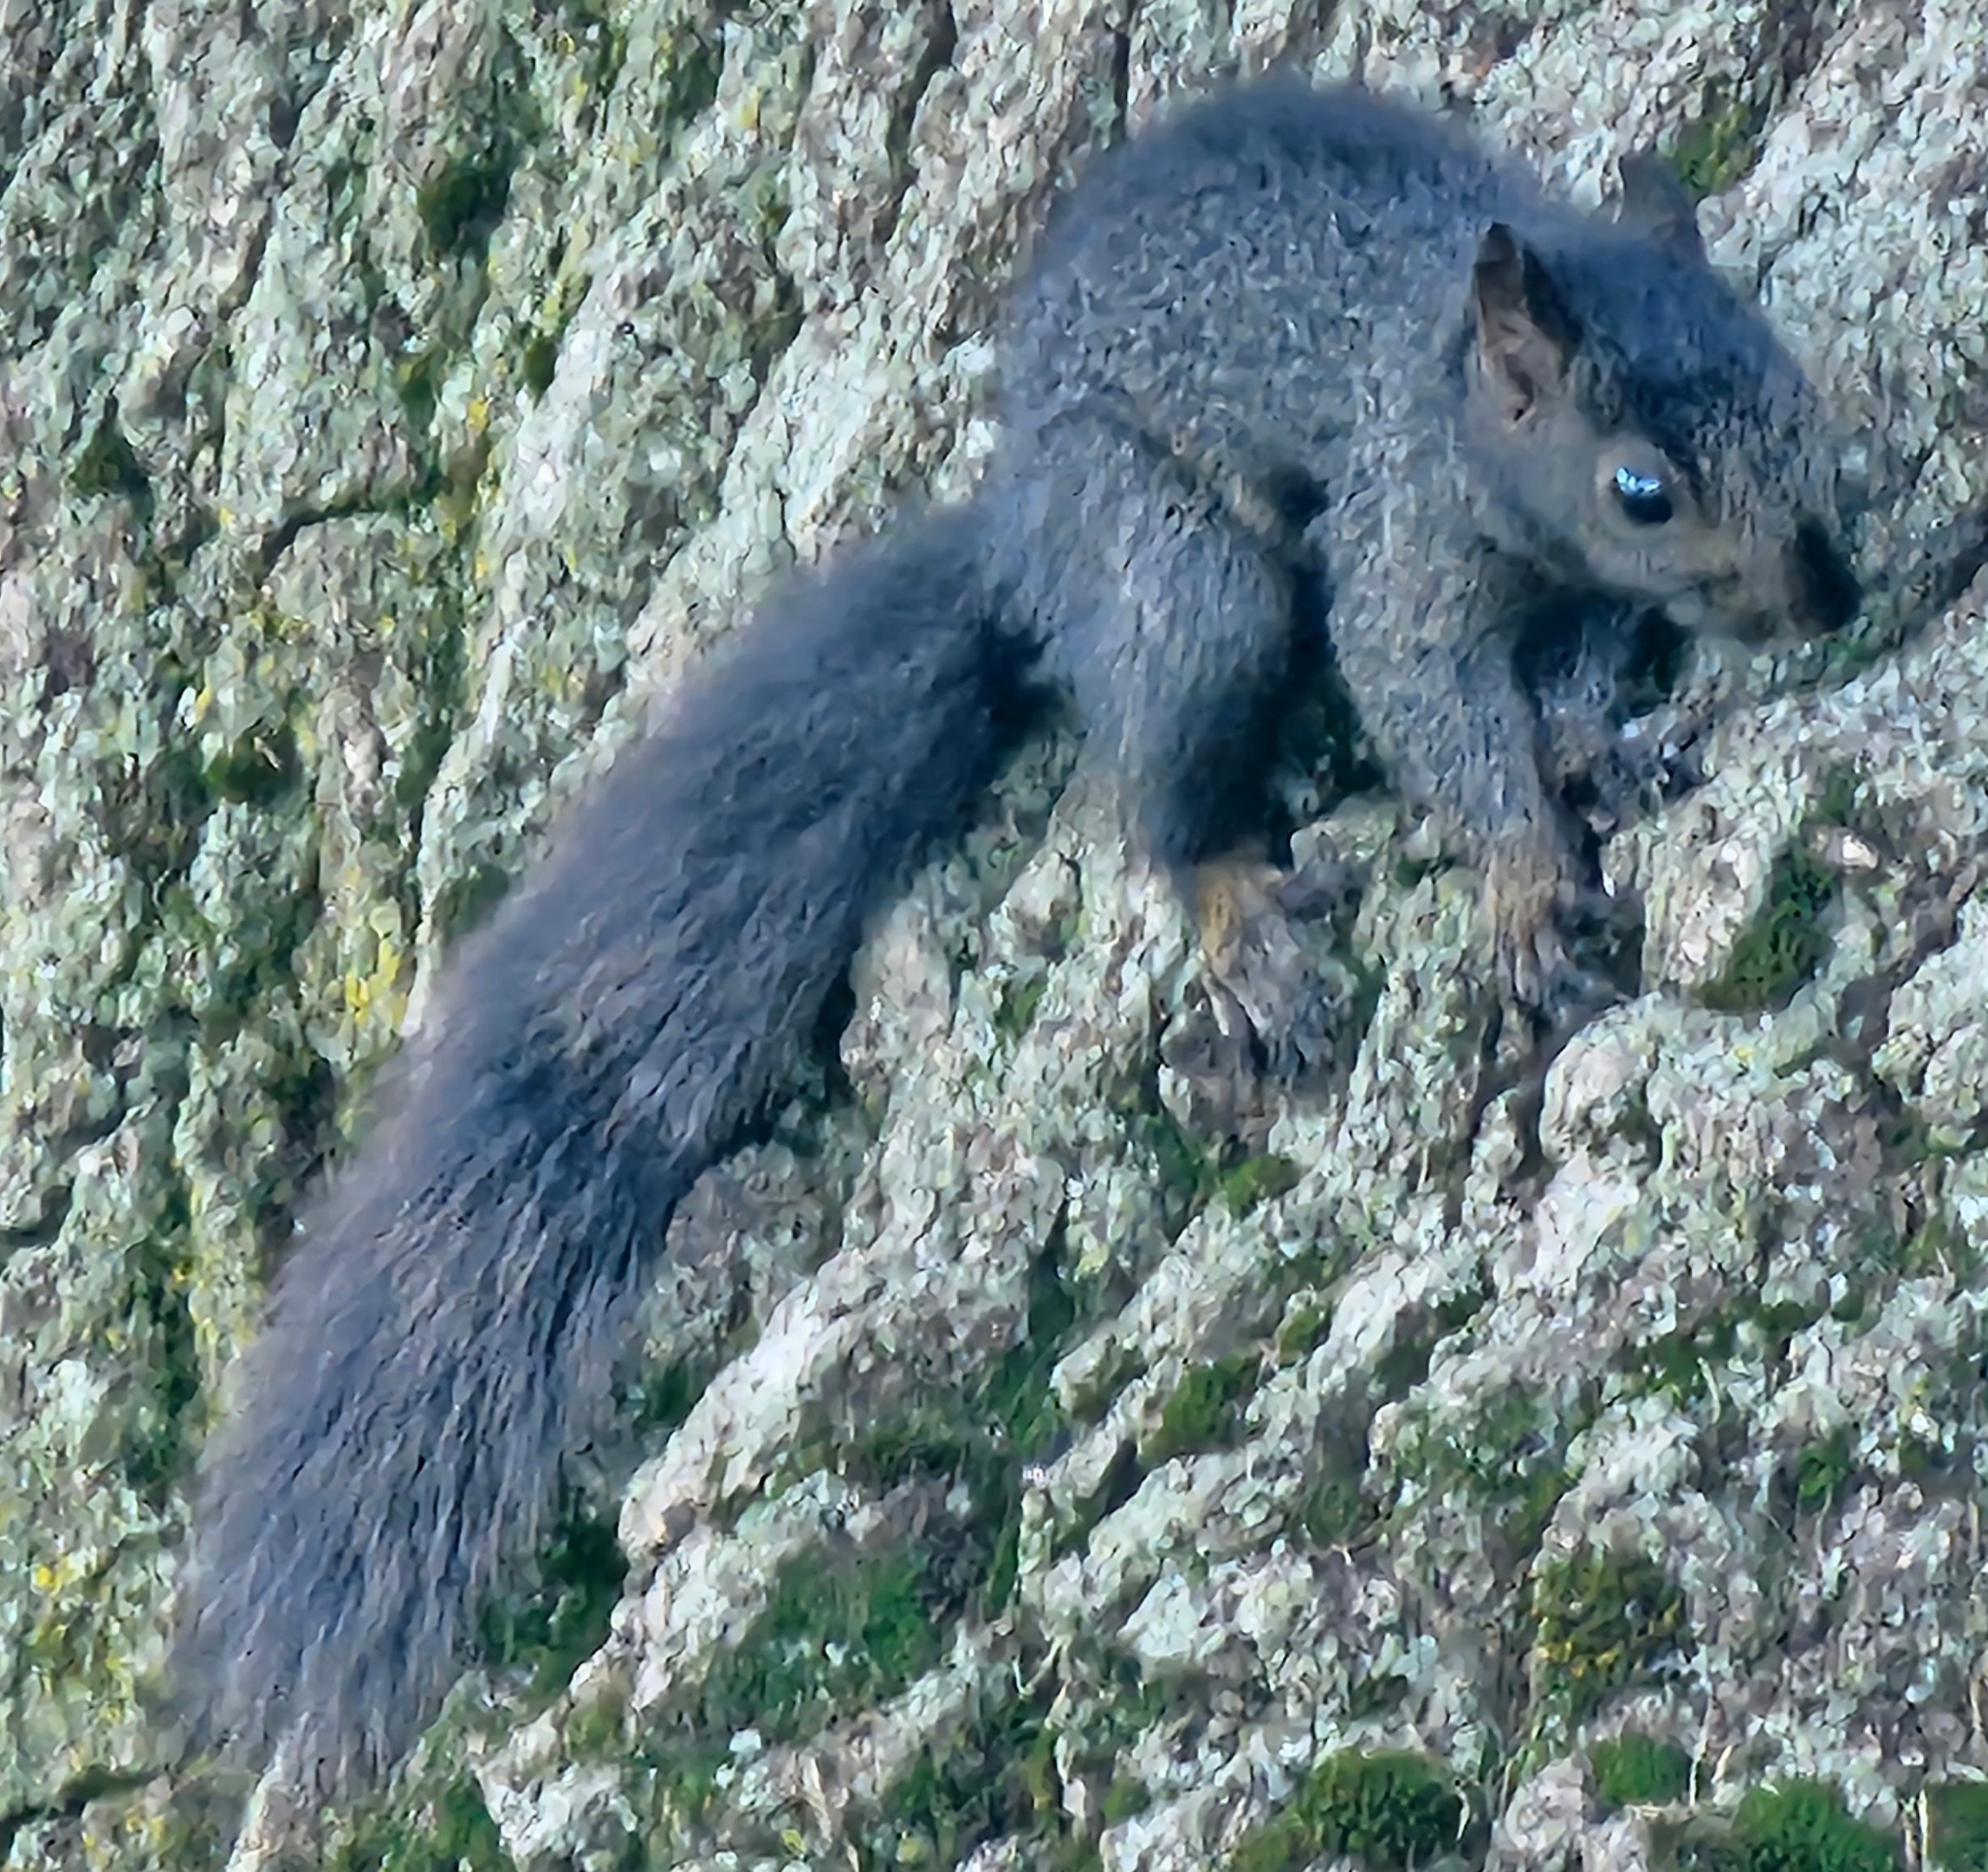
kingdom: Animalia
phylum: Chordata
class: Mammalia
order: Rodentia
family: Sciuridae
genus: Sciurus
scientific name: Sciurus carolinensis
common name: Eastern gray squirrel
